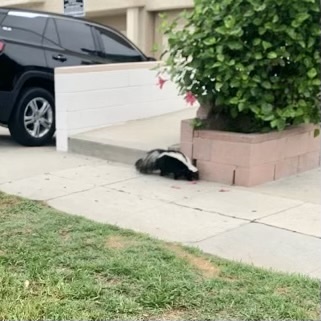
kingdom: Animalia
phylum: Chordata
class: Mammalia
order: Carnivora
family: Mephitidae
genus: Mephitis
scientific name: Mephitis mephitis
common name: Striped skunk
